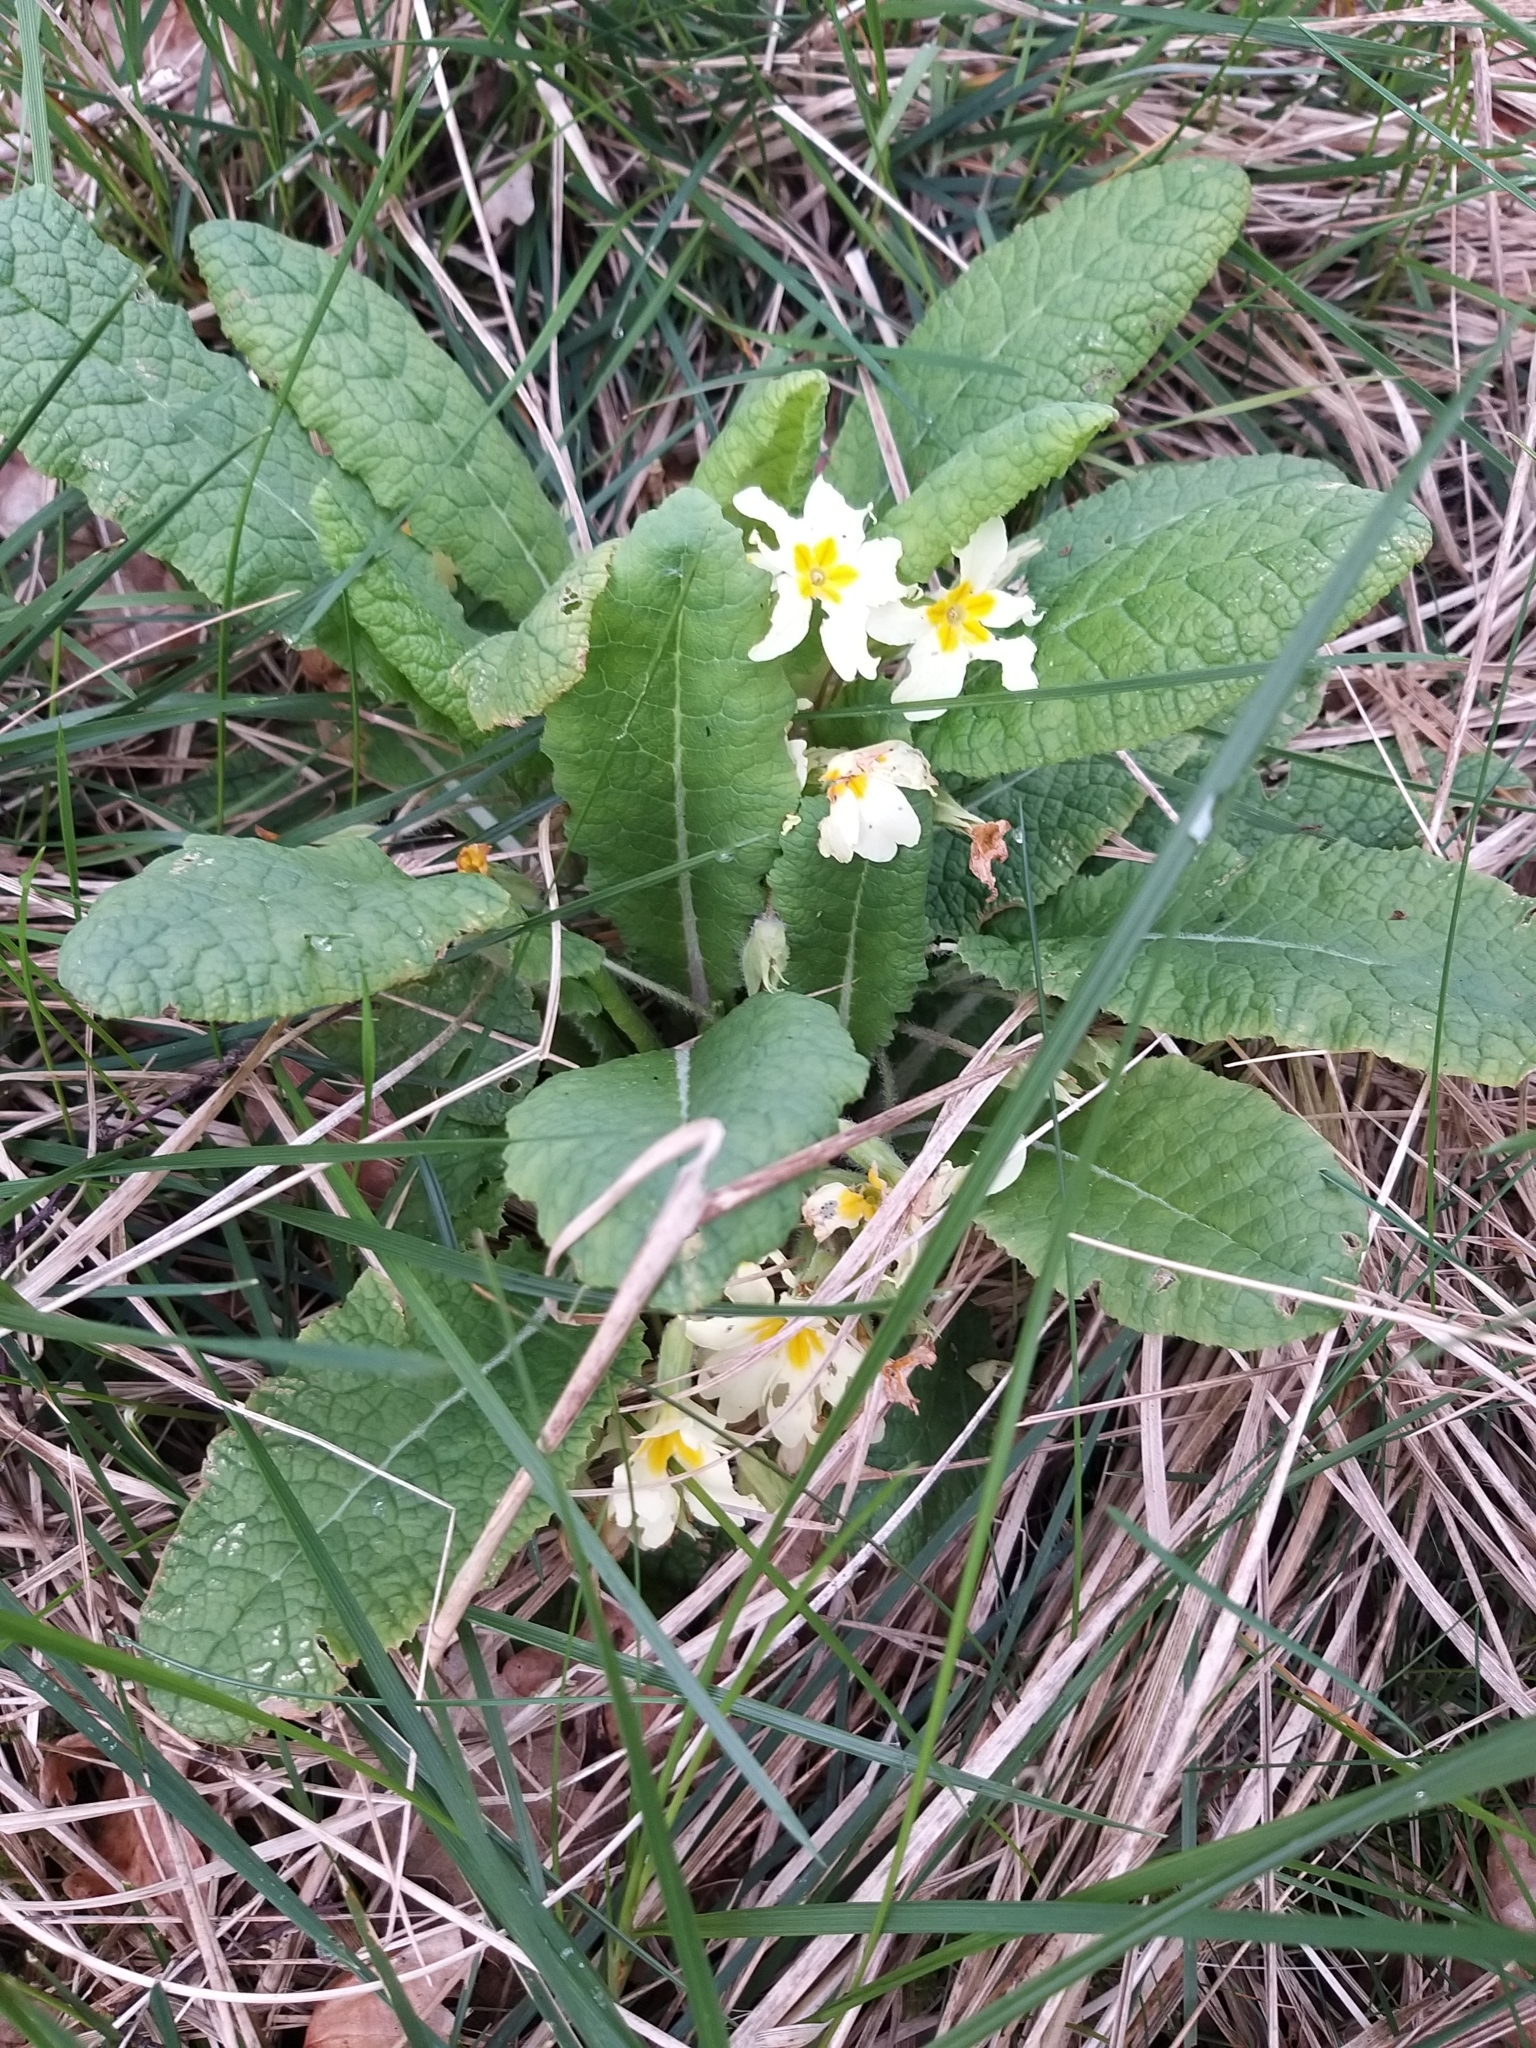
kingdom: Plantae
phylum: Tracheophyta
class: Magnoliopsida
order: Ericales
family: Primulaceae
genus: Primula
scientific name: Primula vulgaris
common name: Primrose
